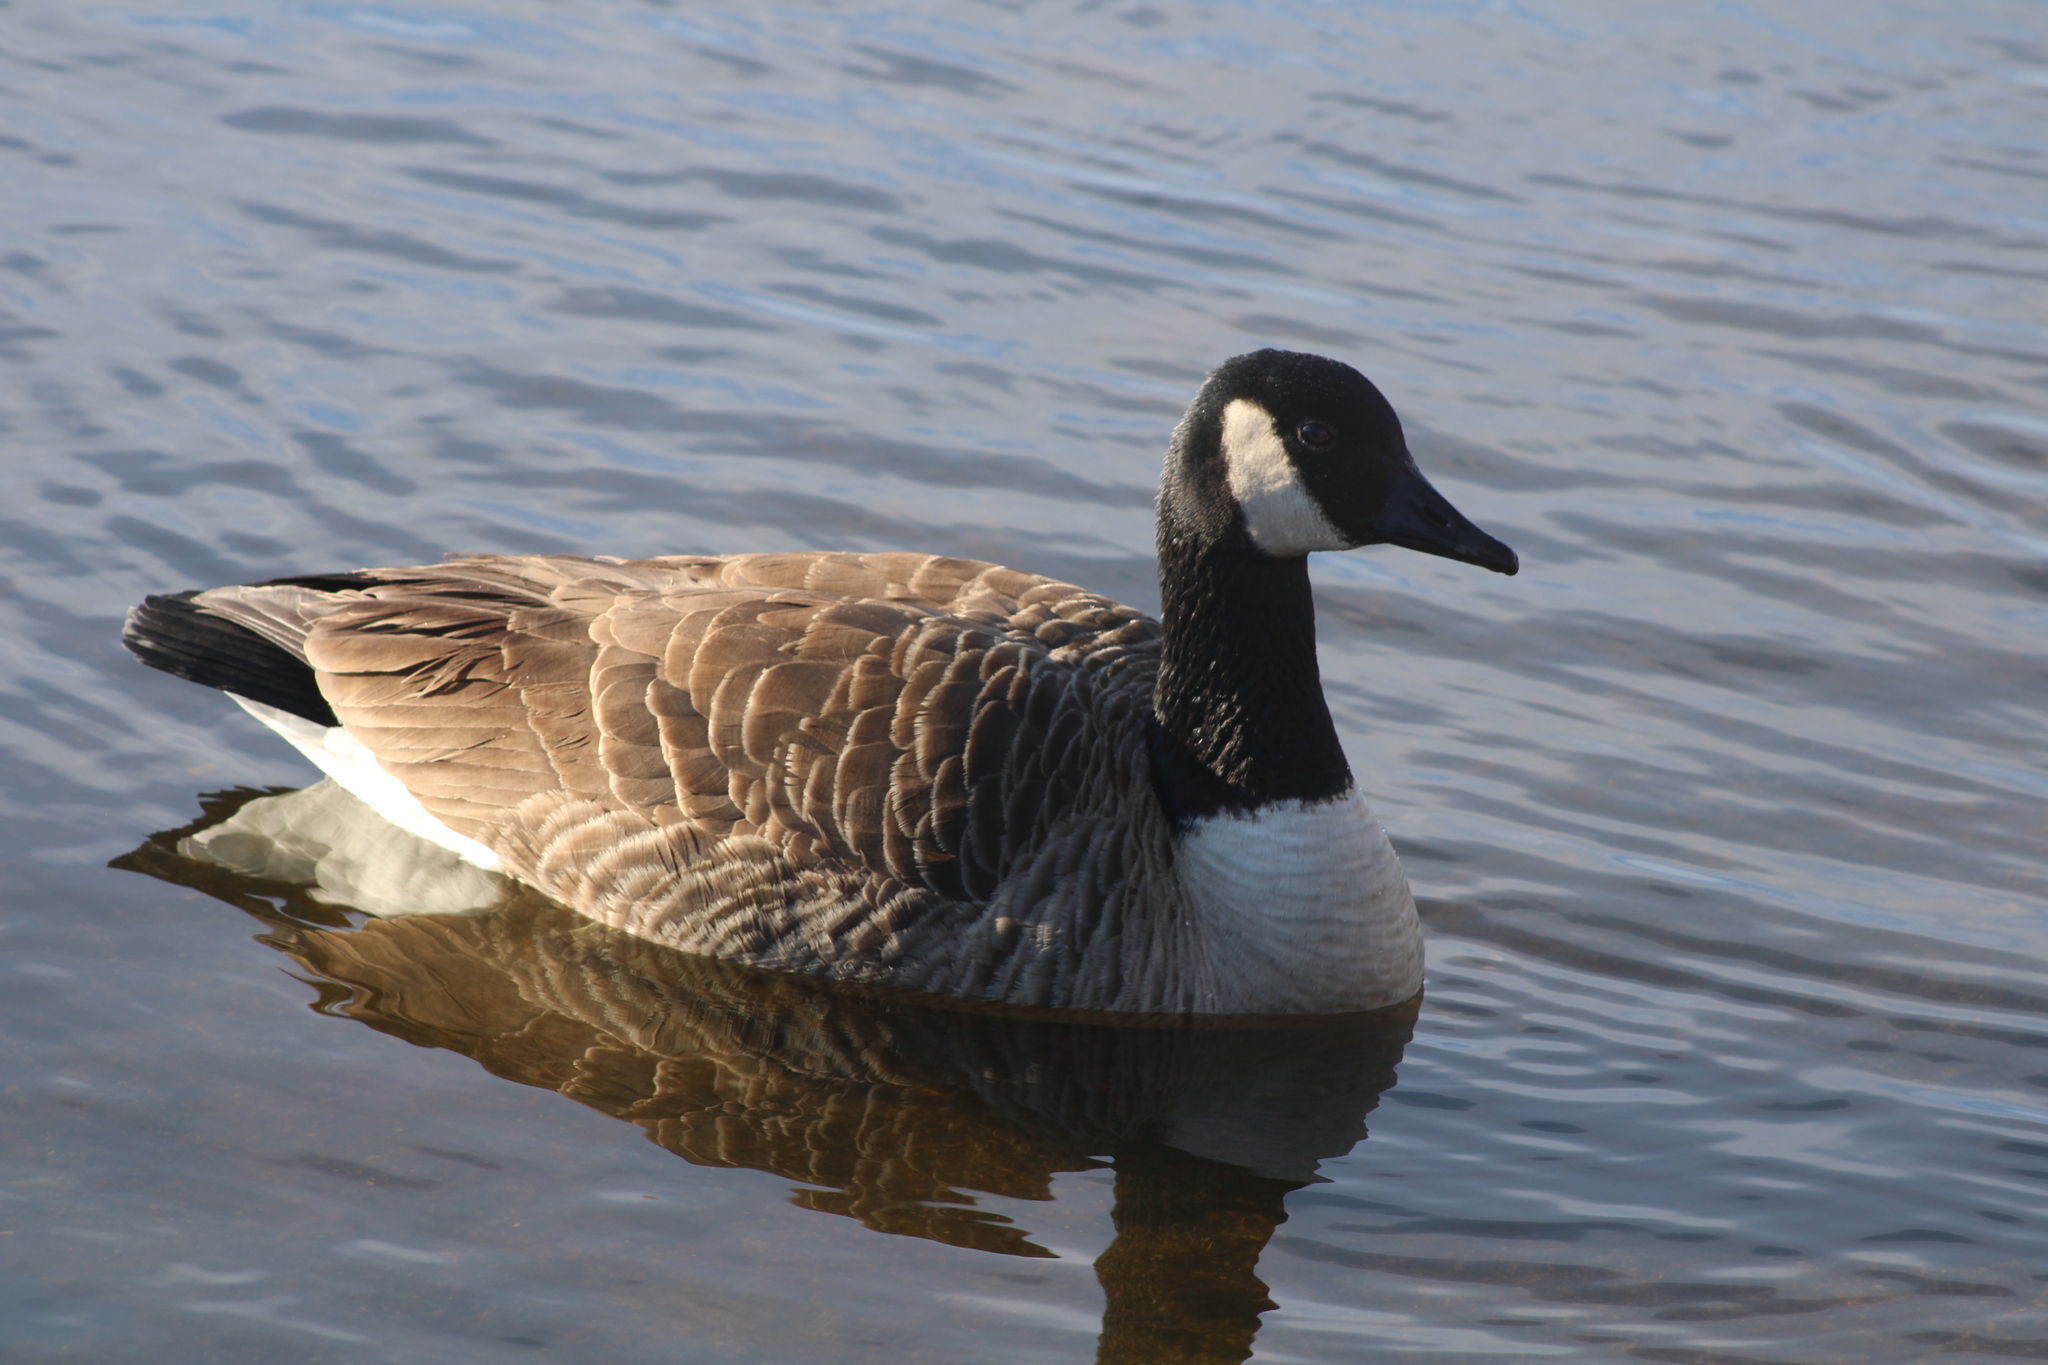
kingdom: Animalia
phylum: Chordata
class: Aves
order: Anseriformes
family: Anatidae
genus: Branta
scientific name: Branta canadensis
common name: Canada goose
